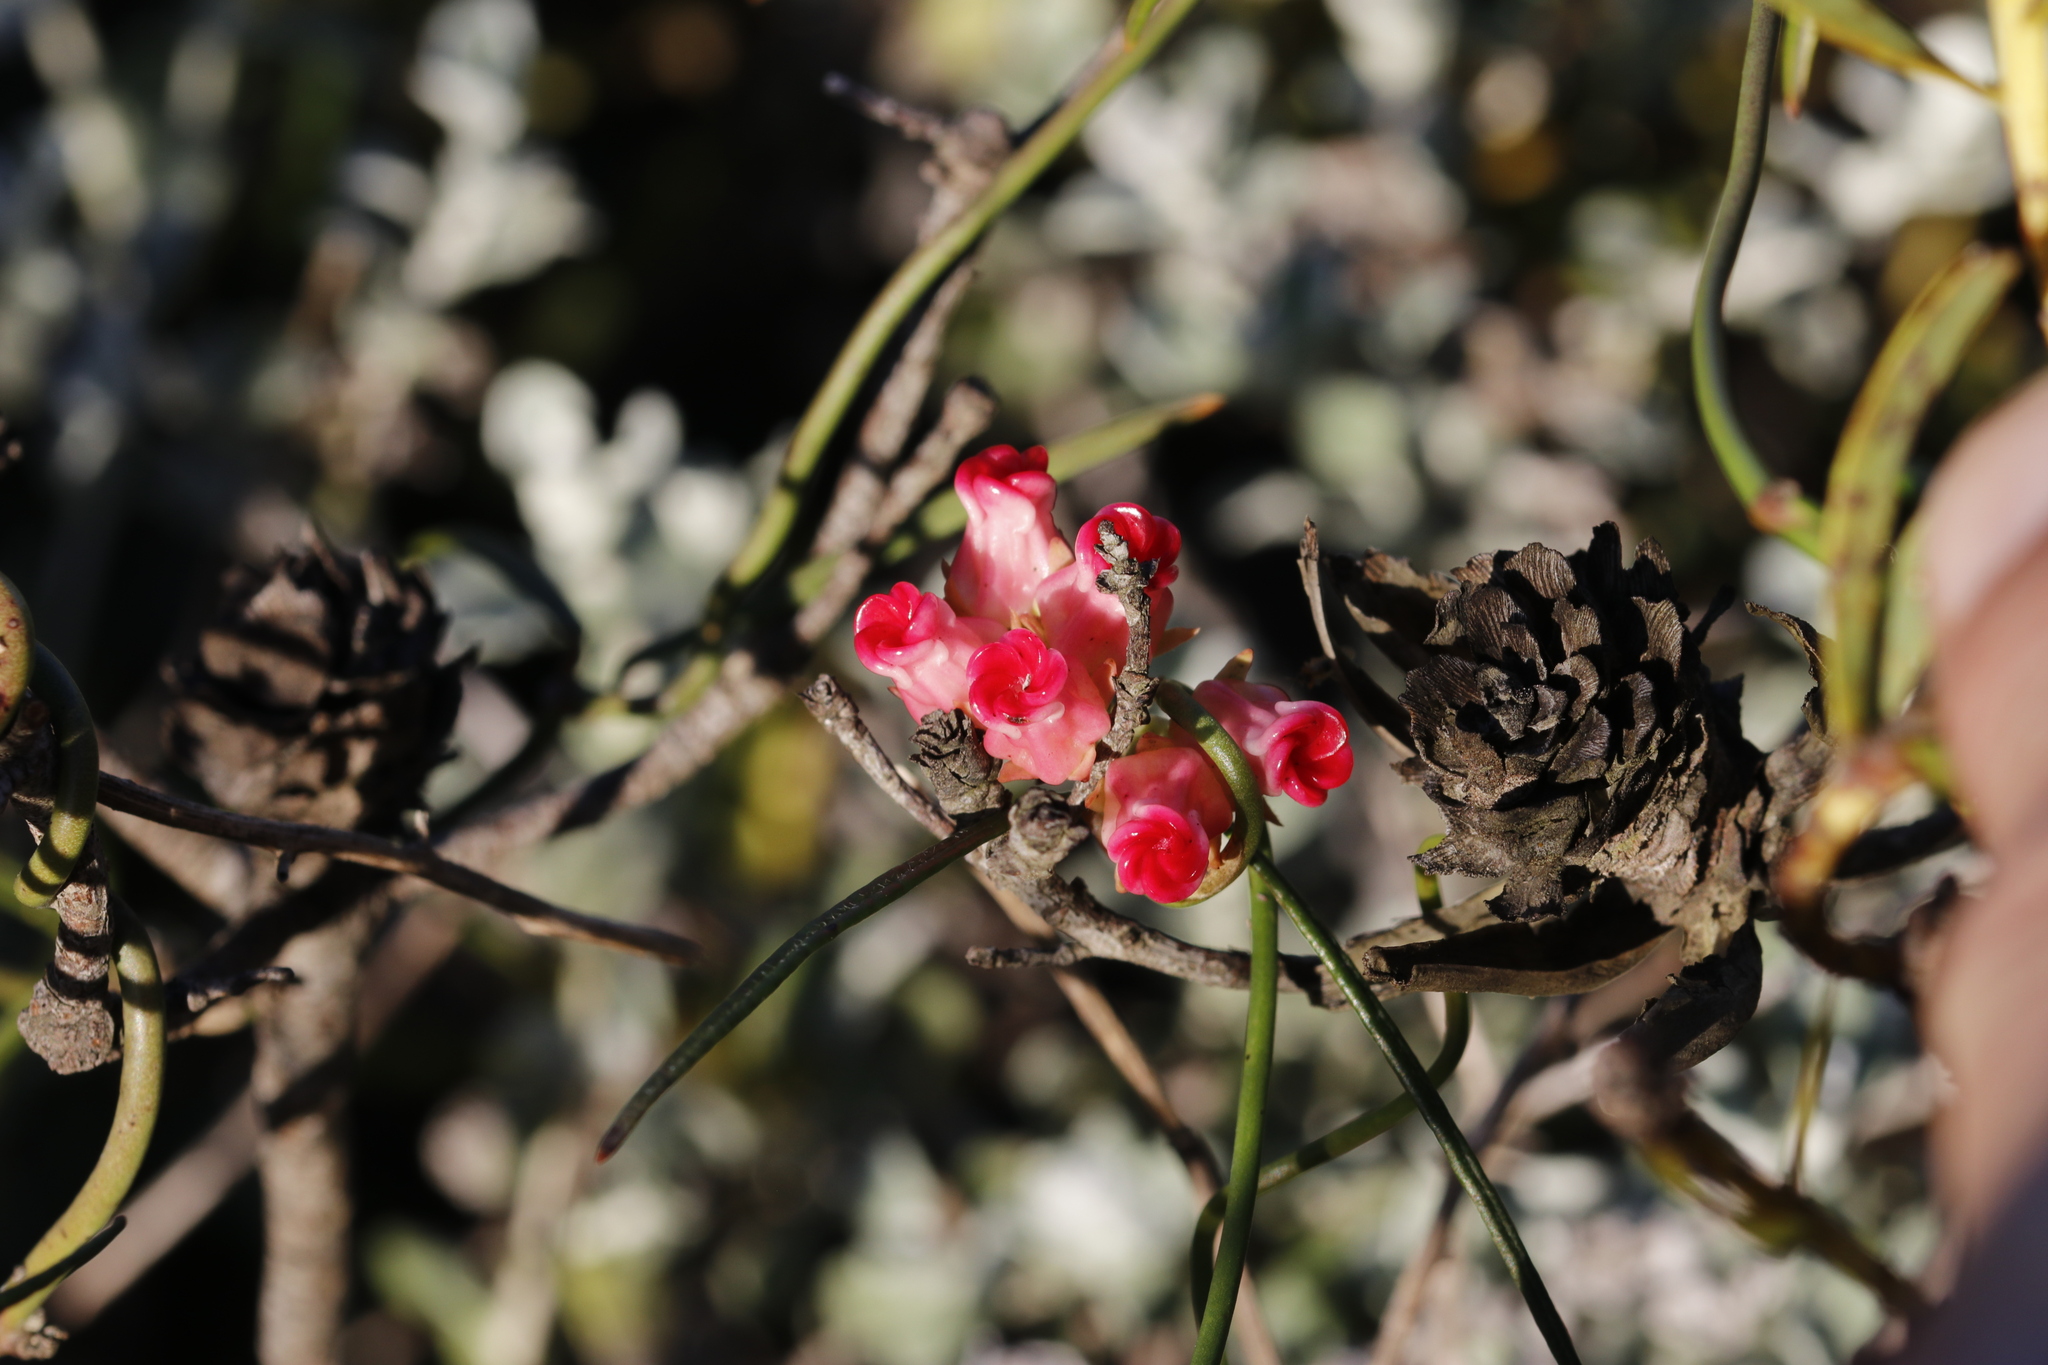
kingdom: Plantae
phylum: Tracheophyta
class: Magnoliopsida
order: Gentianales
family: Apocynaceae
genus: Microloma
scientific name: Microloma tenuifolium
